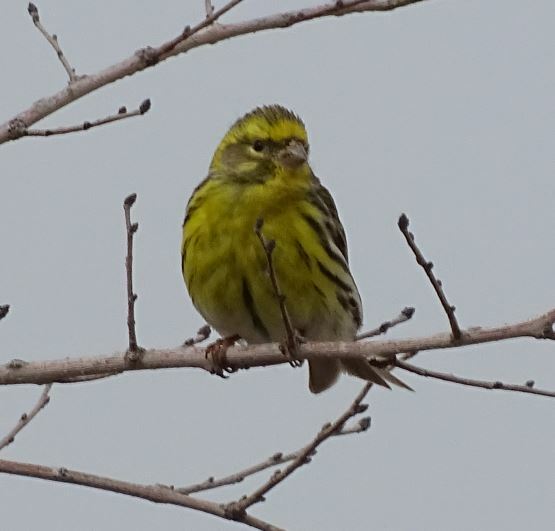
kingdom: Animalia
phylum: Chordata
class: Aves
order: Passeriformes
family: Fringillidae
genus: Serinus
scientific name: Serinus serinus
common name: European serin
